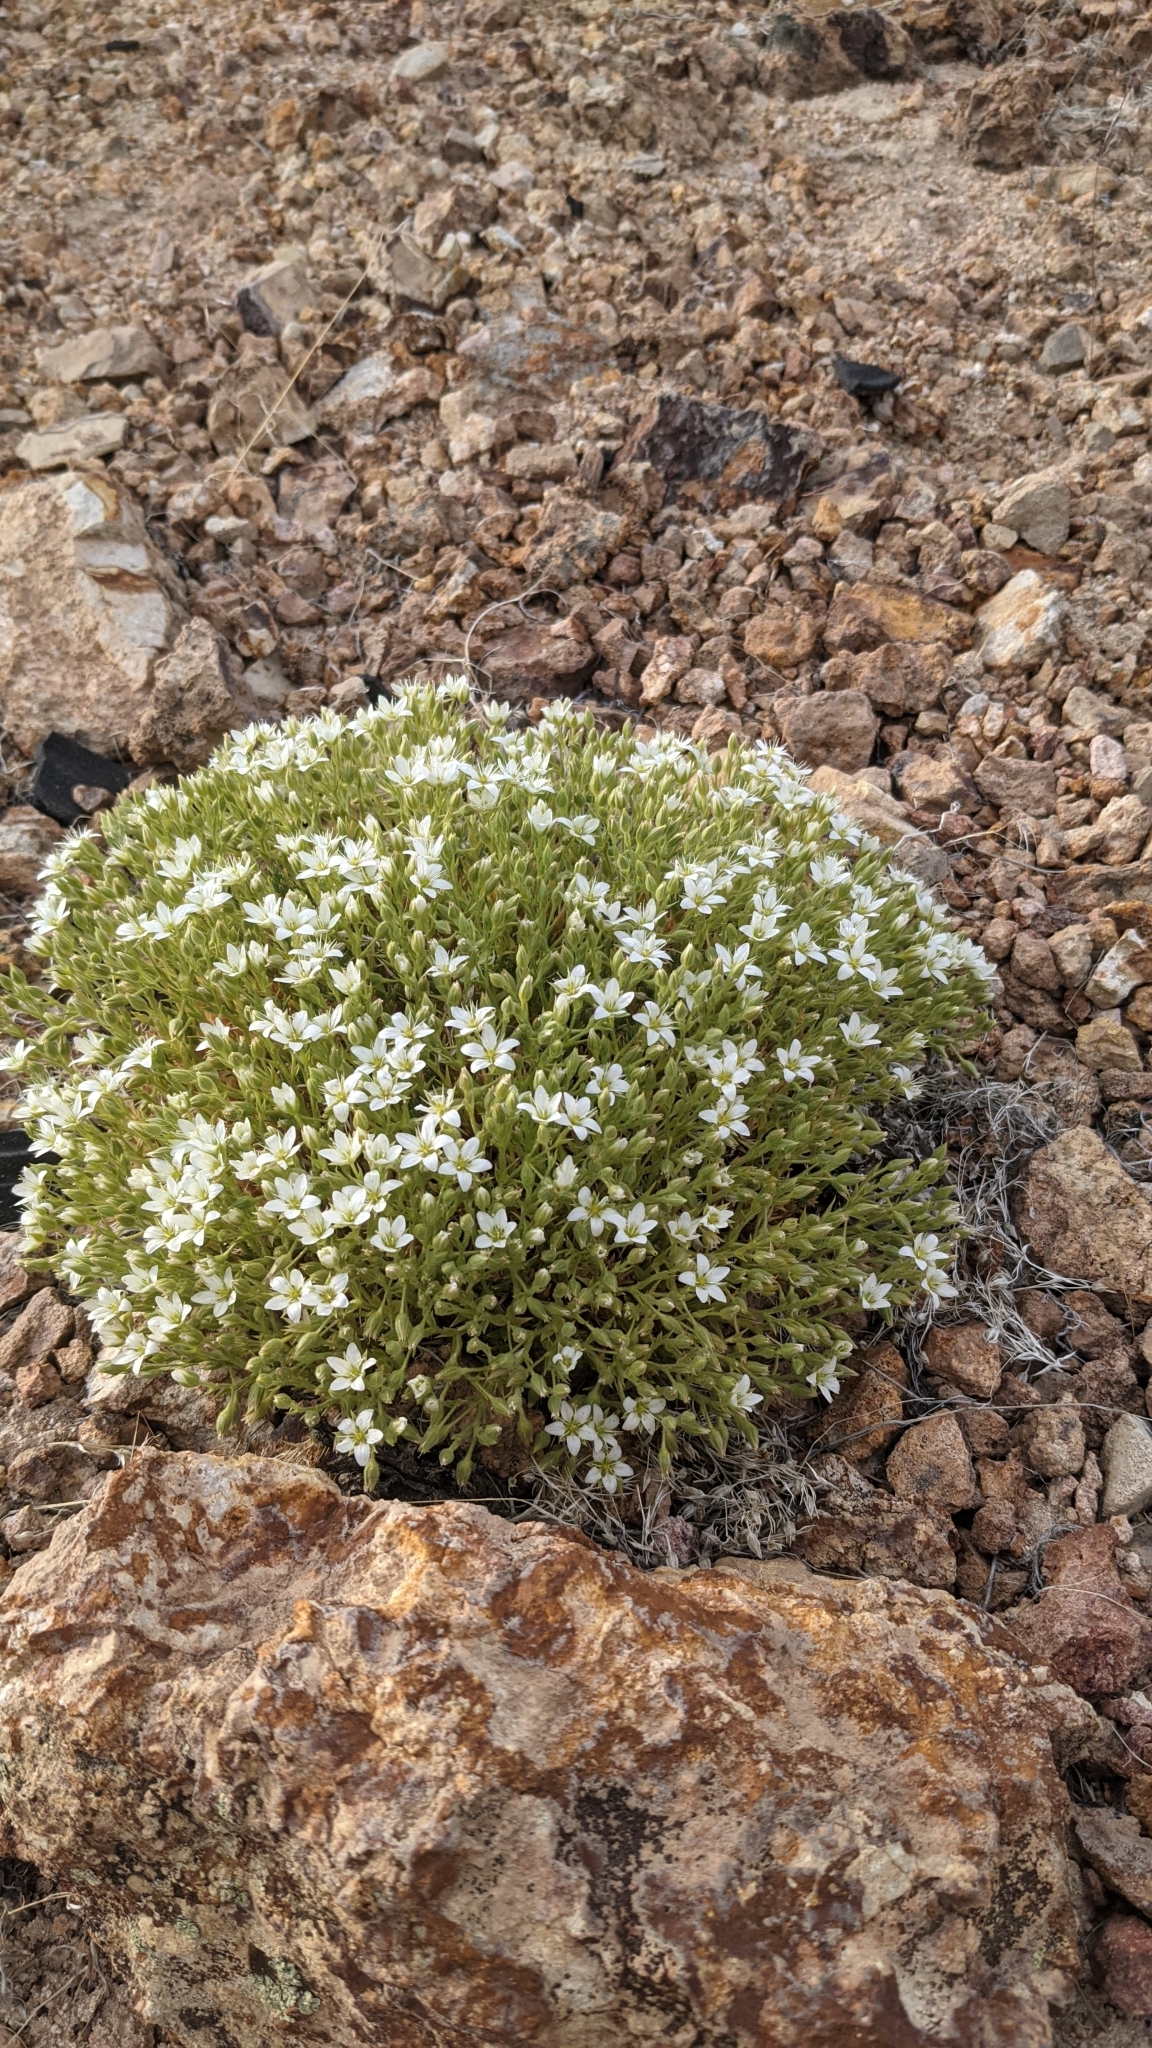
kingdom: Plantae
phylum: Tracheophyta
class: Magnoliopsida
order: Caryophyllales
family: Caryophyllaceae
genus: Sabulina
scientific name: Sabulina nuttallii
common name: Nuttall's stitchwort
